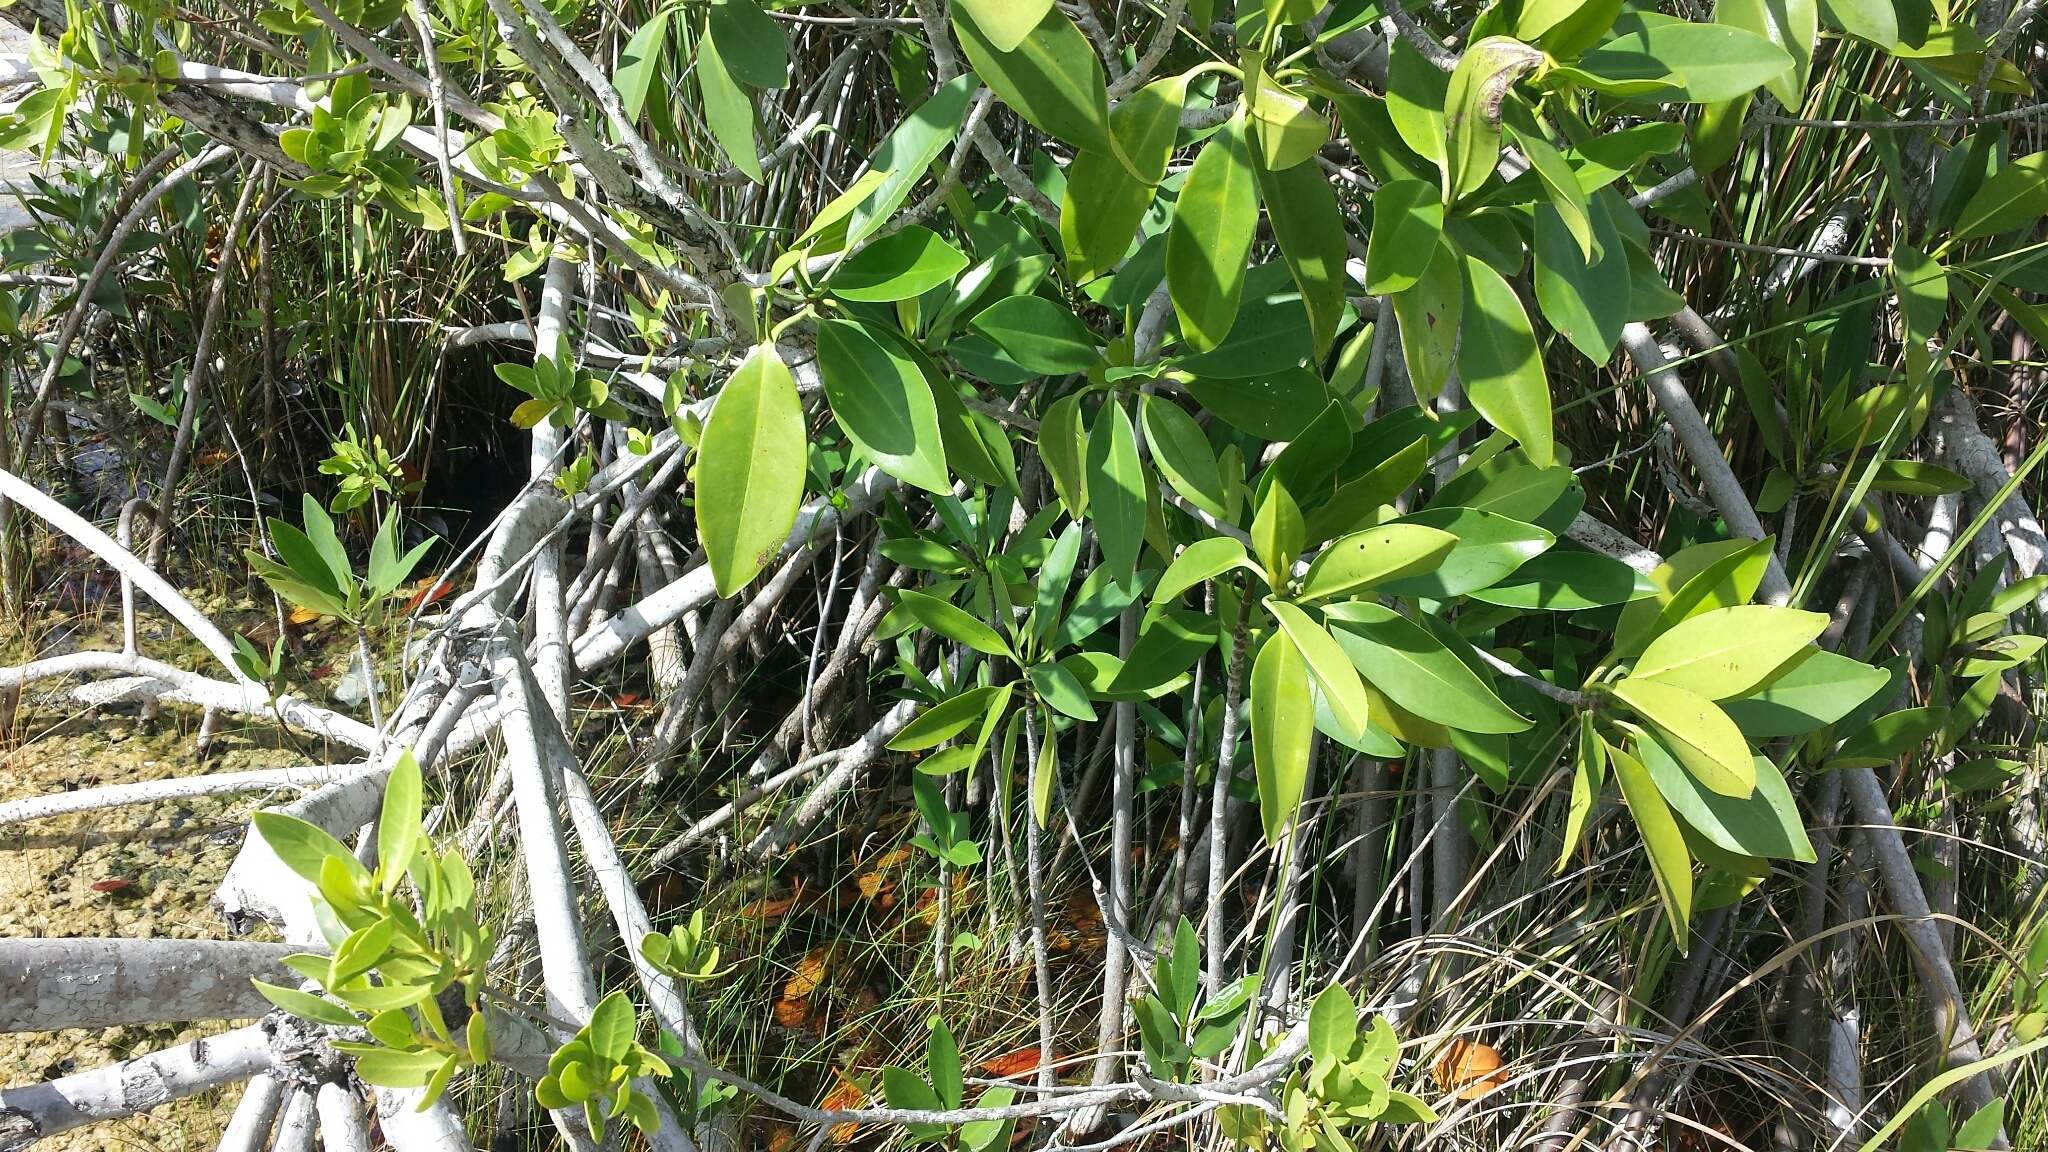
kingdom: Plantae
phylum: Tracheophyta
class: Magnoliopsida
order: Malpighiales
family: Rhizophoraceae
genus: Rhizophora
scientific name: Rhizophora mangle
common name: Red mangrove
